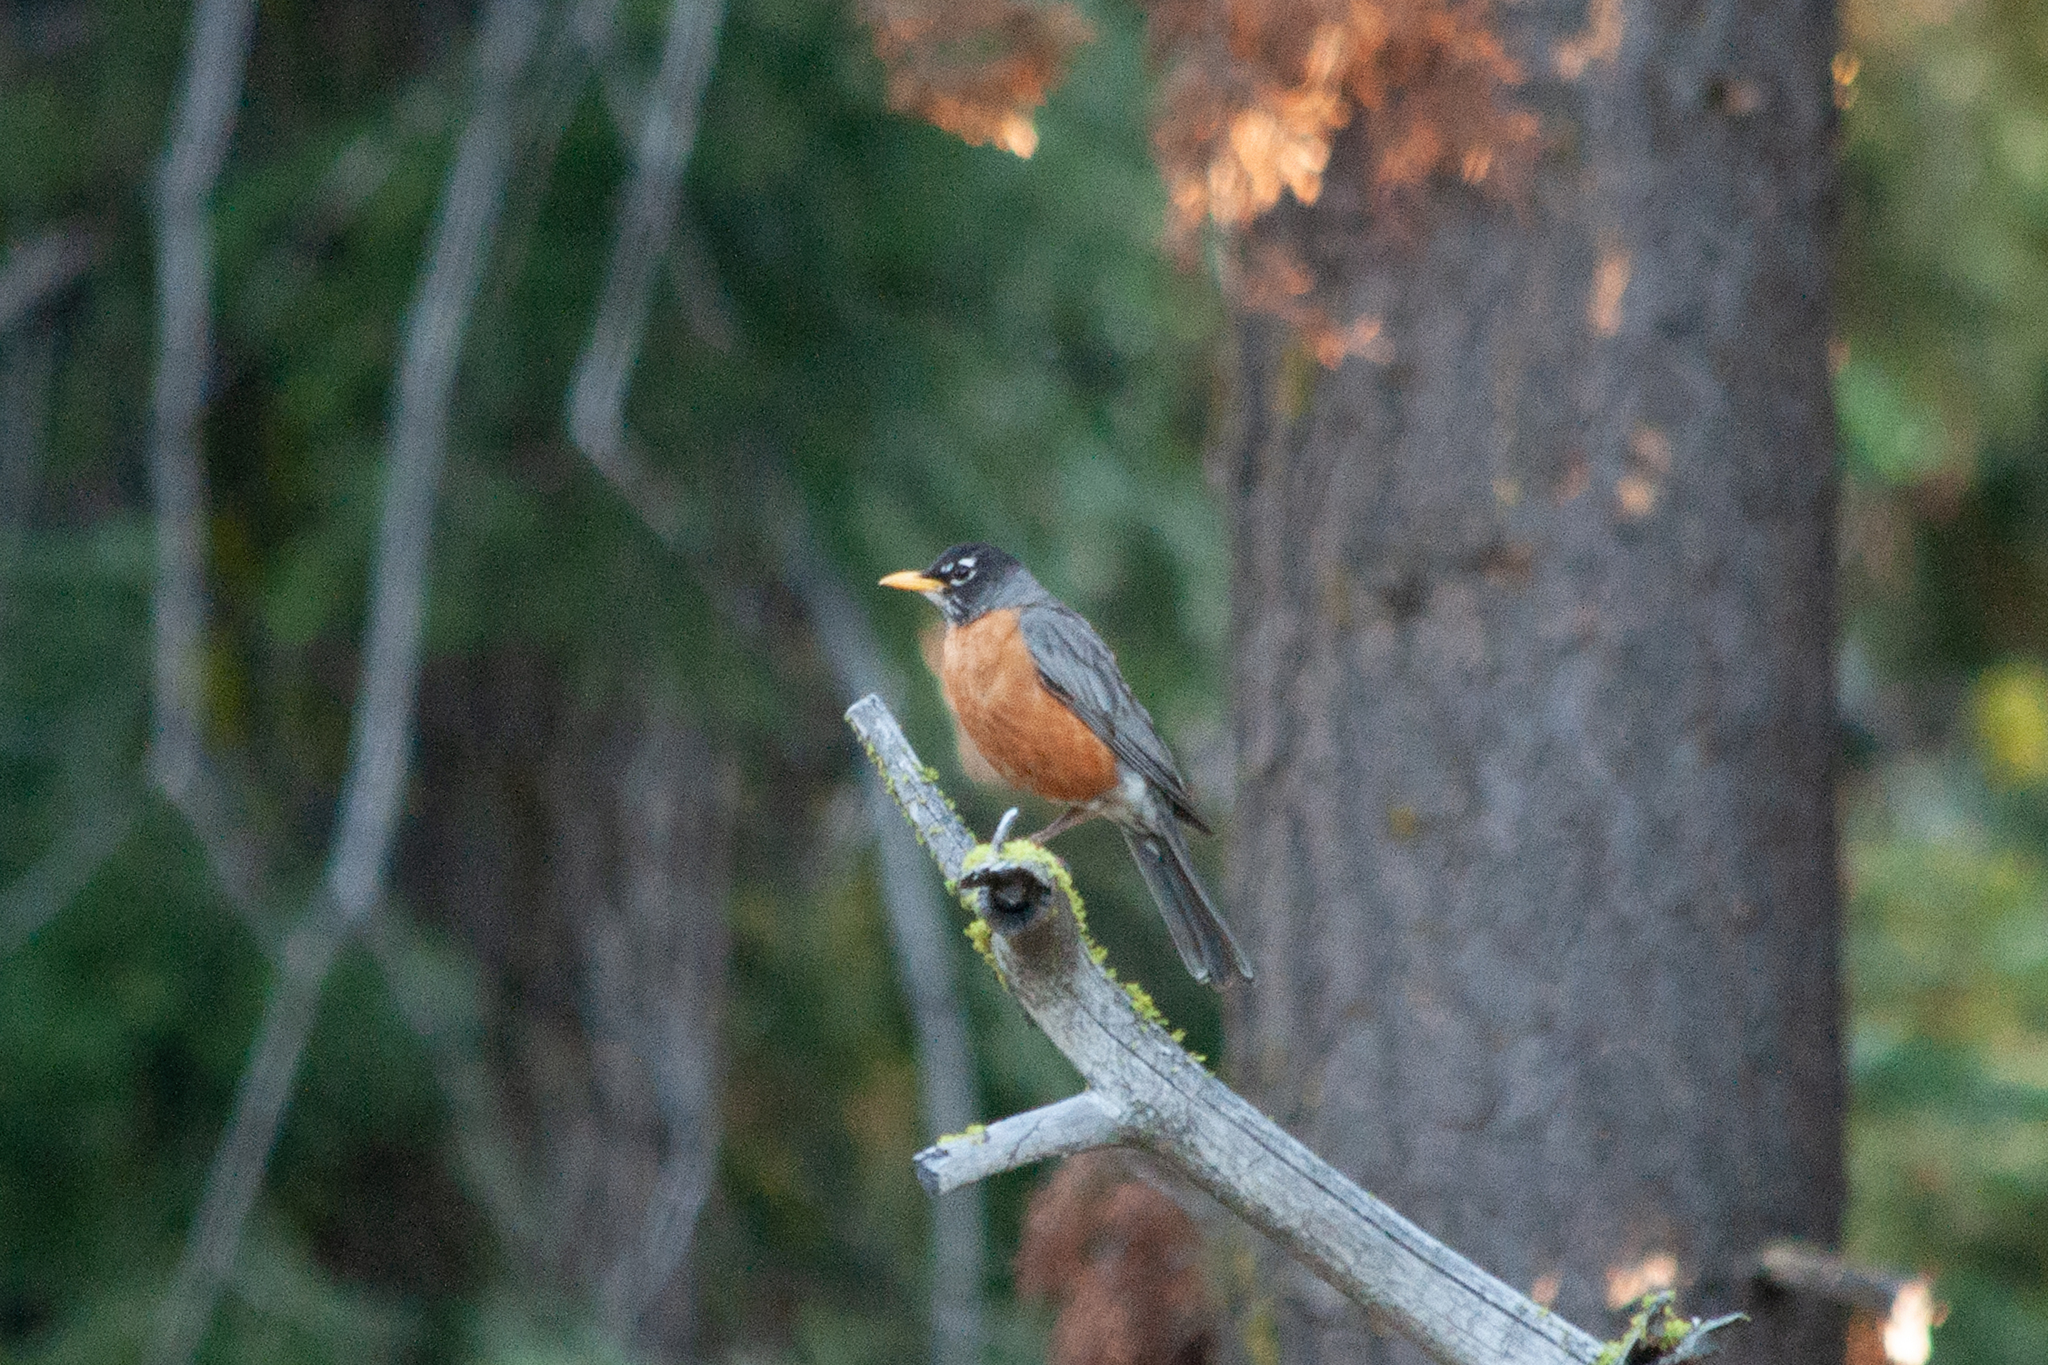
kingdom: Animalia
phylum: Chordata
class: Aves
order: Passeriformes
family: Turdidae
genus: Turdus
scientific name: Turdus migratorius
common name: American robin
